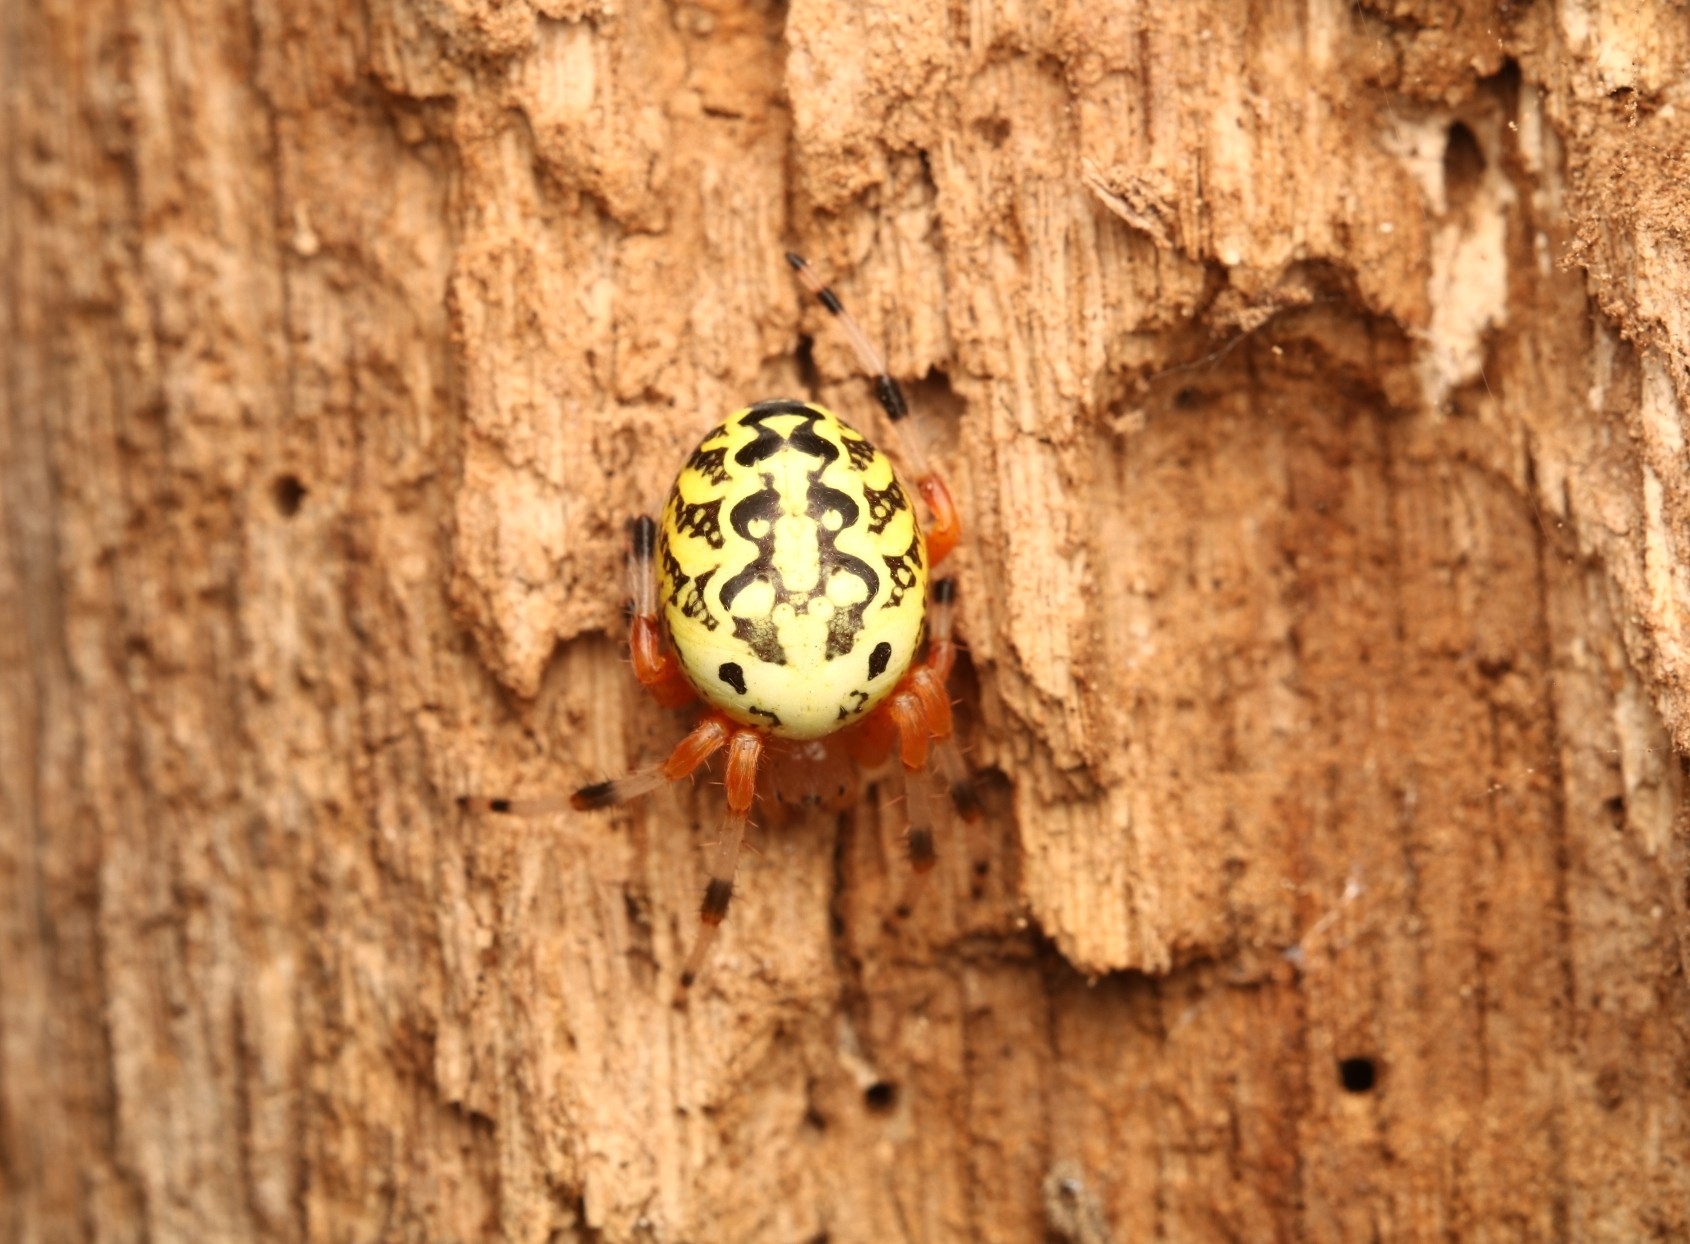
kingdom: Animalia
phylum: Arthropoda
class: Arachnida
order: Araneae
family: Araneidae
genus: Araneus
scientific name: Araneus marmoreus
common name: Marbled orbweaver
